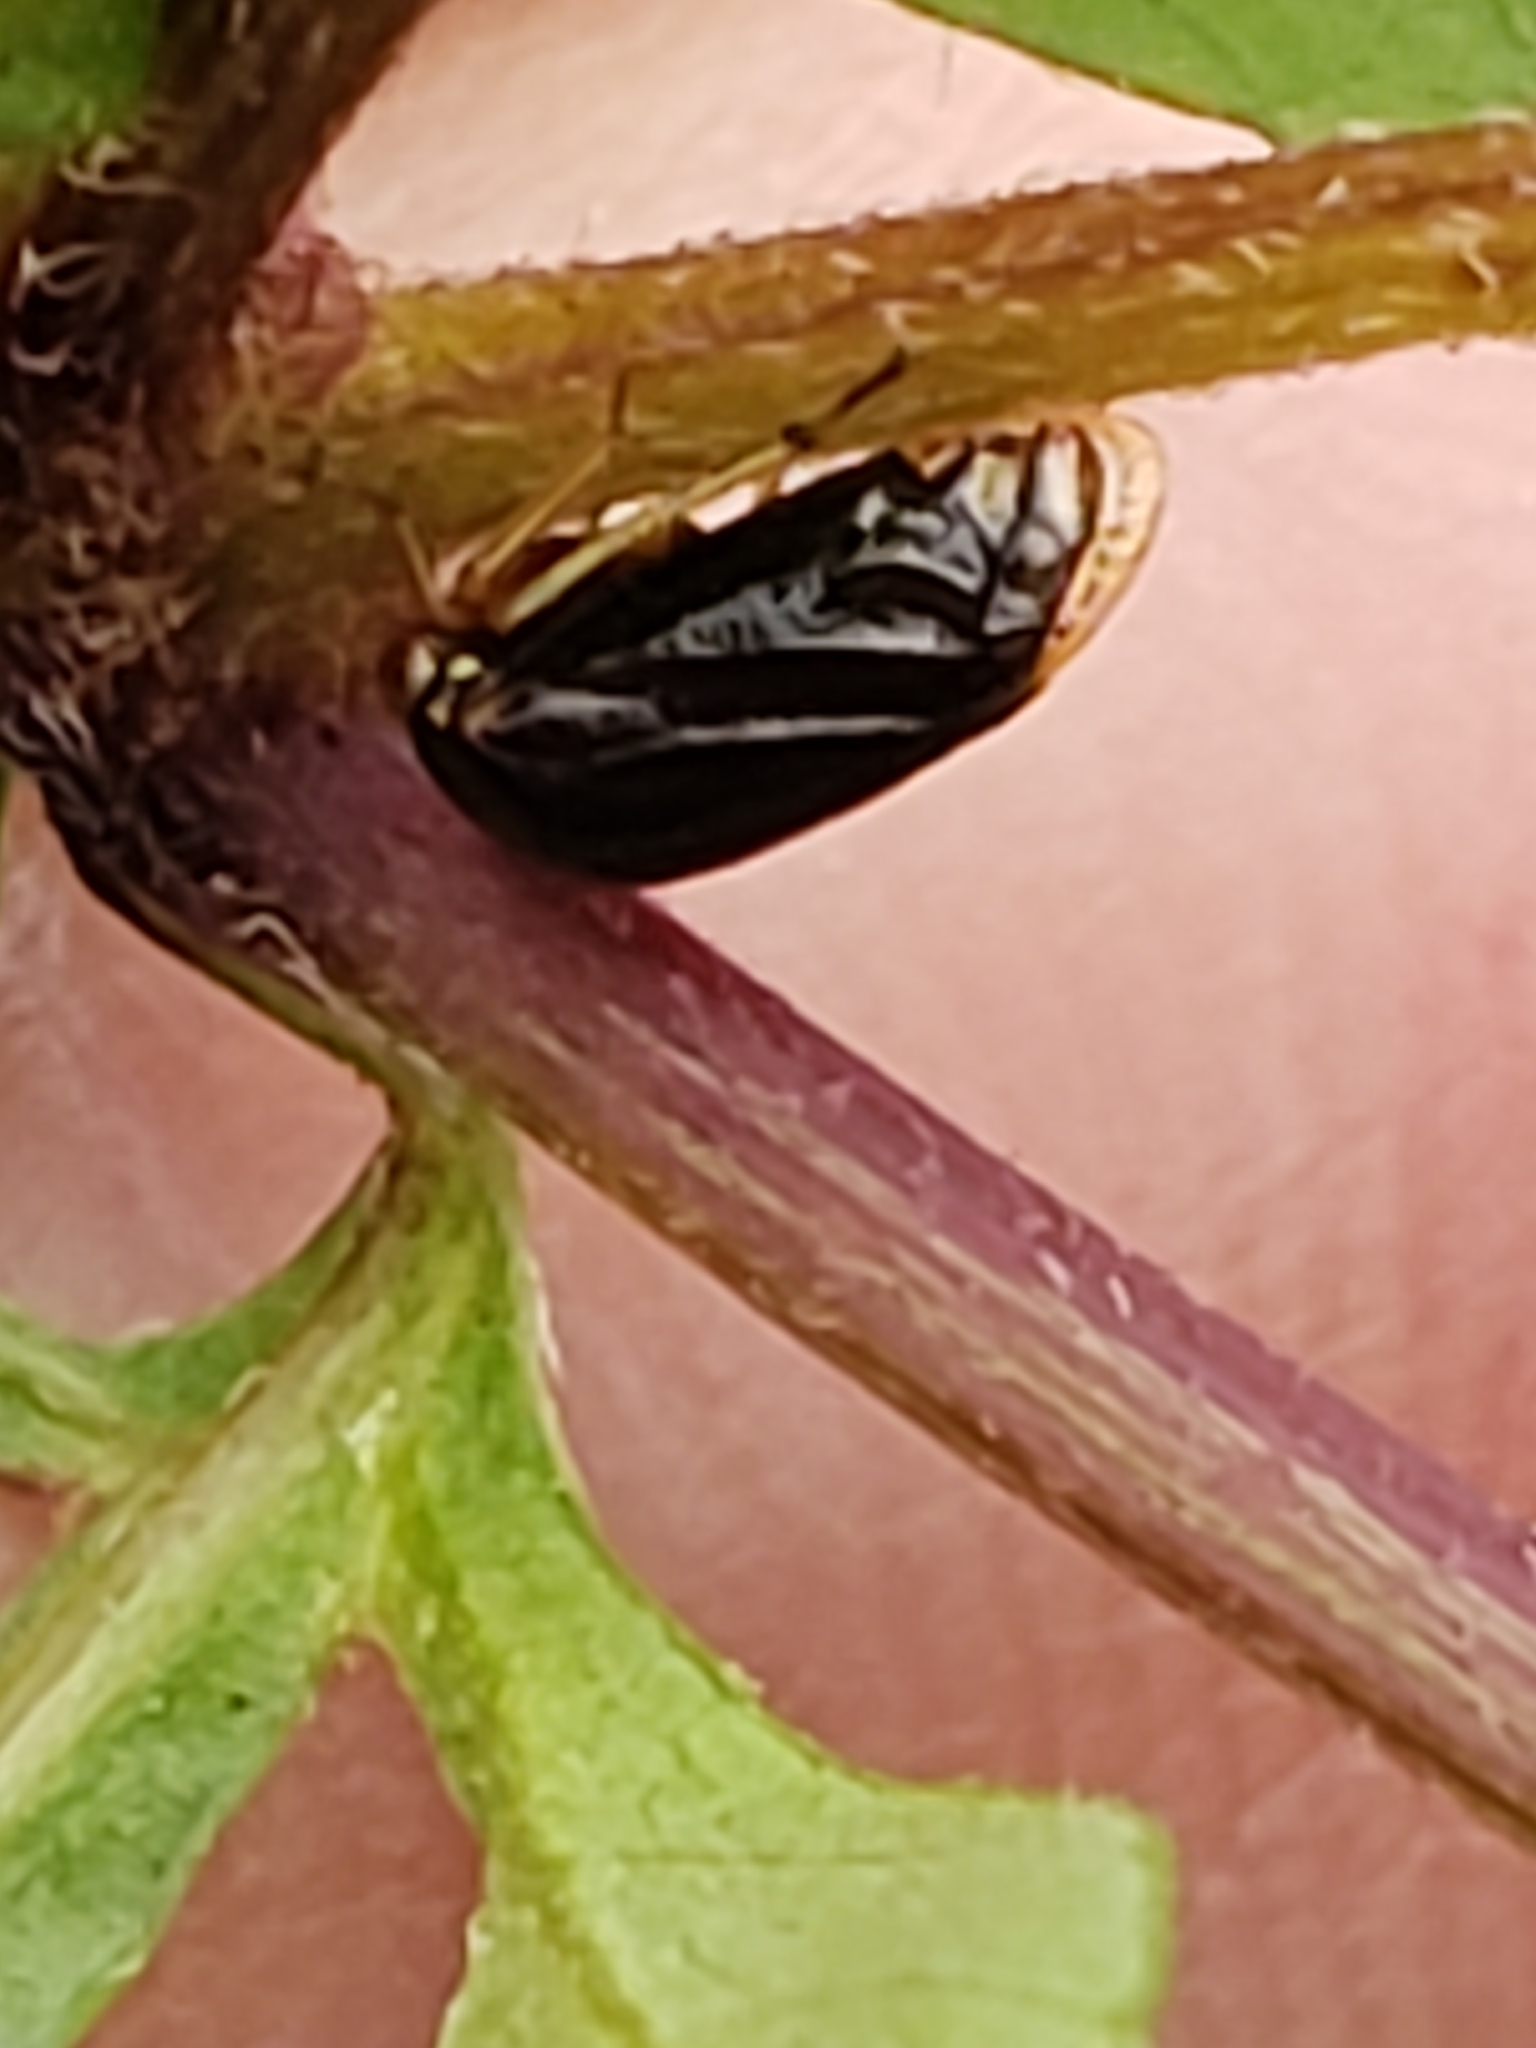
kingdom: Animalia
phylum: Arthropoda
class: Insecta
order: Hemiptera
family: Membracidae
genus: Acutalis
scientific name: Acutalis tartarea
